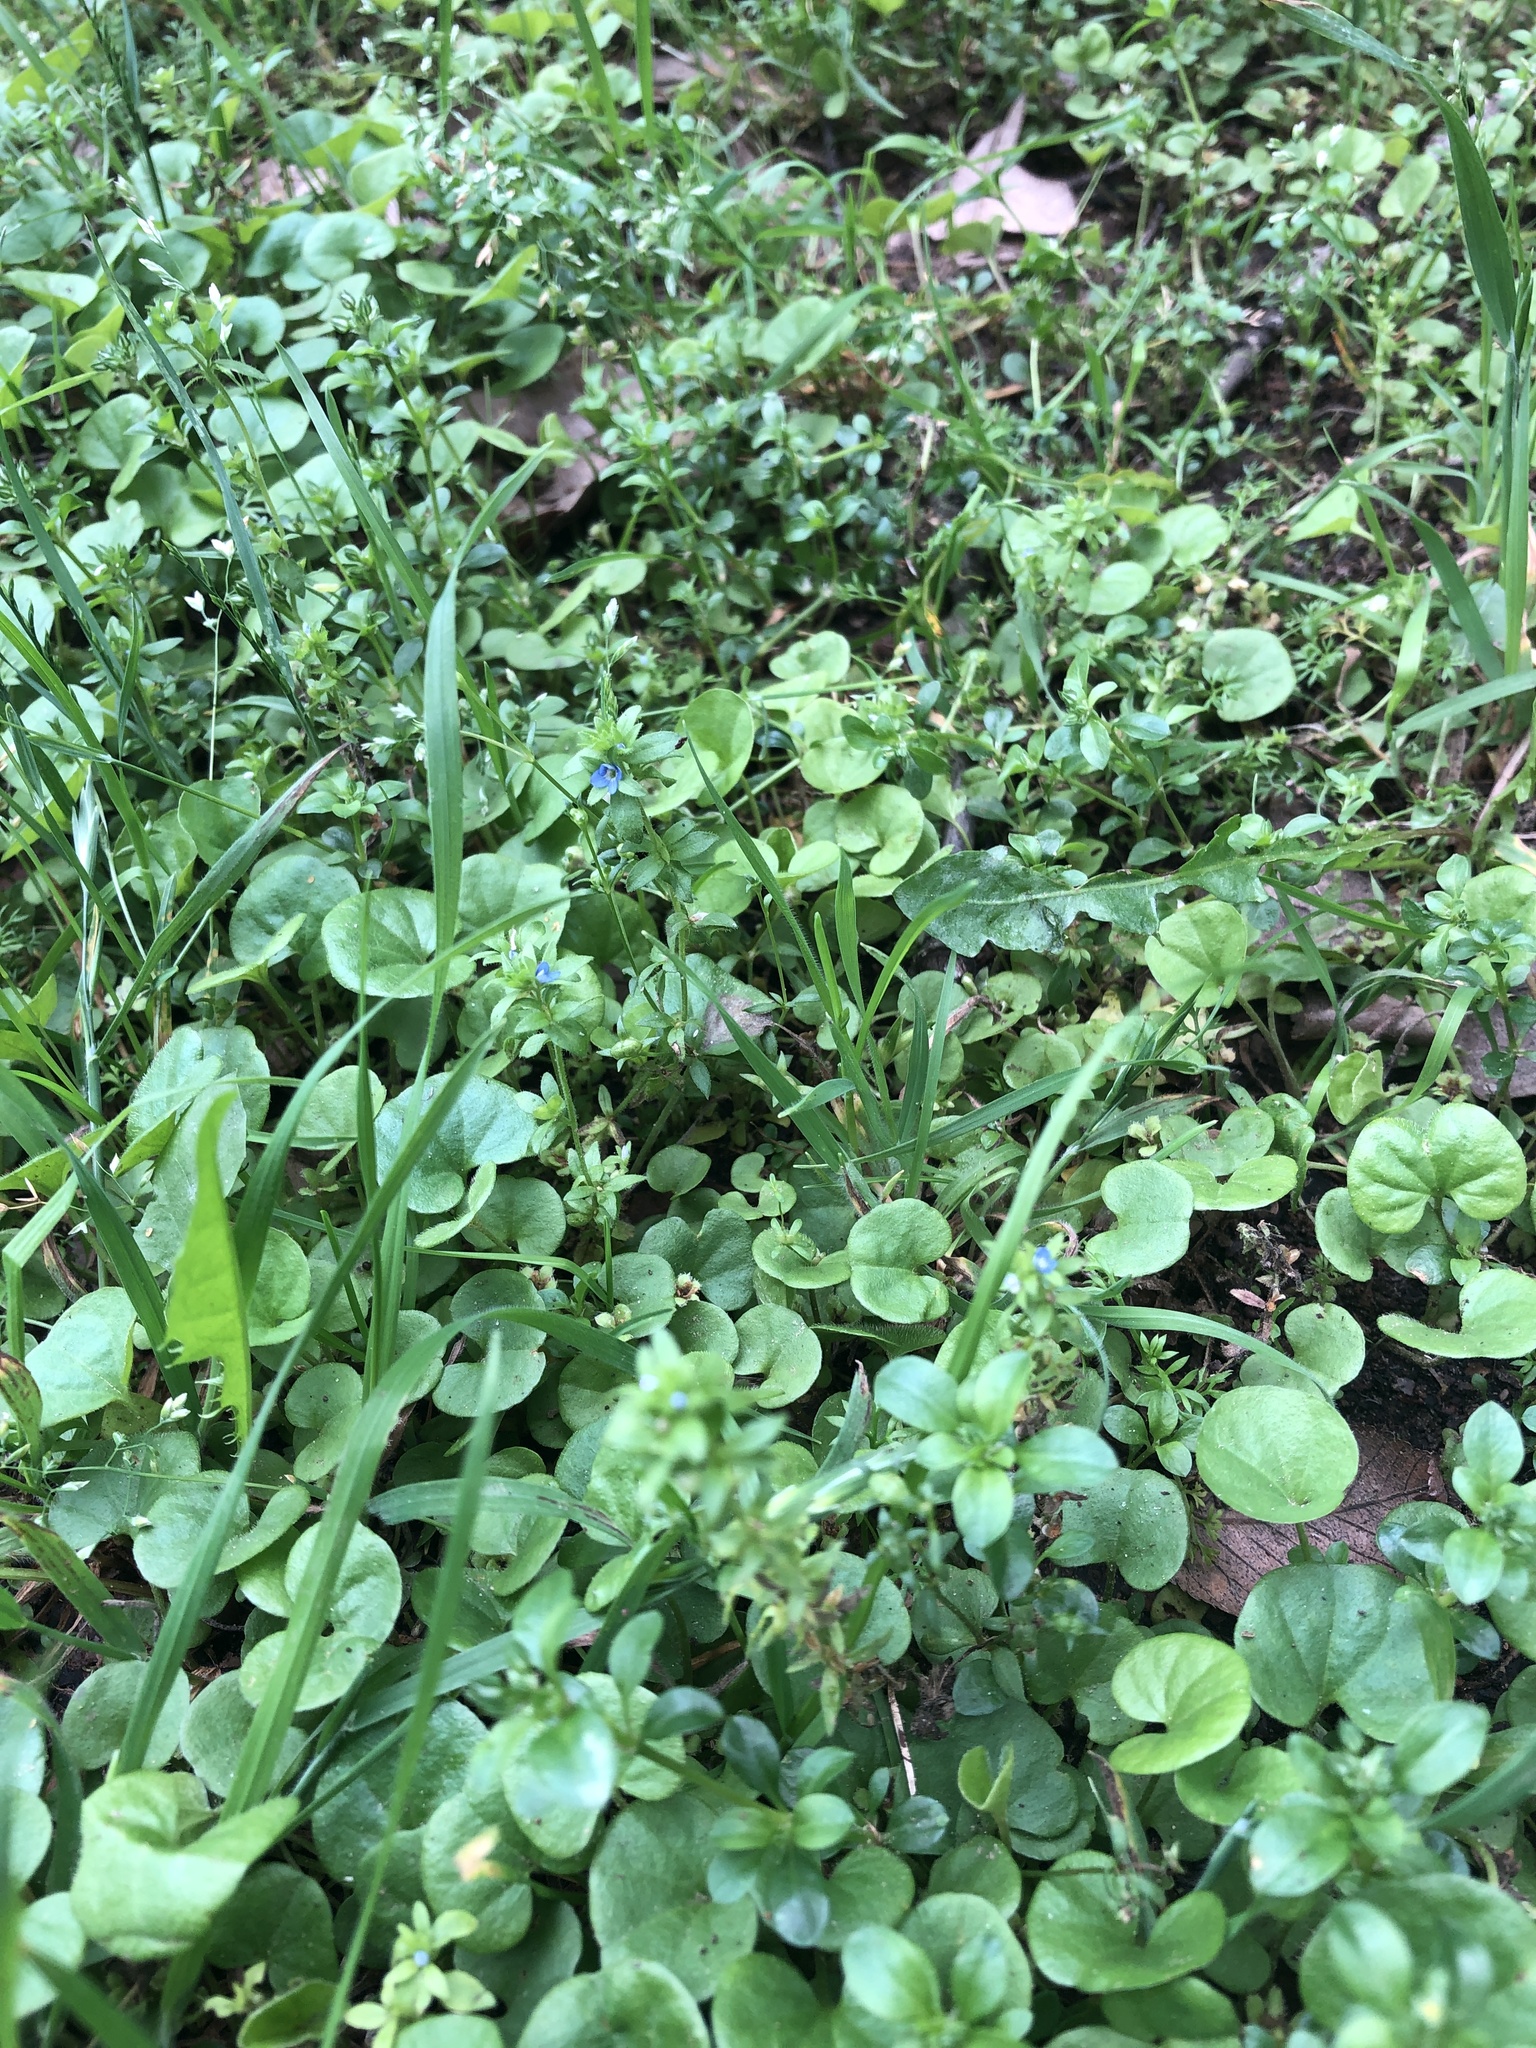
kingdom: Plantae
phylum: Tracheophyta
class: Magnoliopsida
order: Lamiales
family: Plantaginaceae
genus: Veronica
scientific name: Veronica arvensis
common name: Corn speedwell
